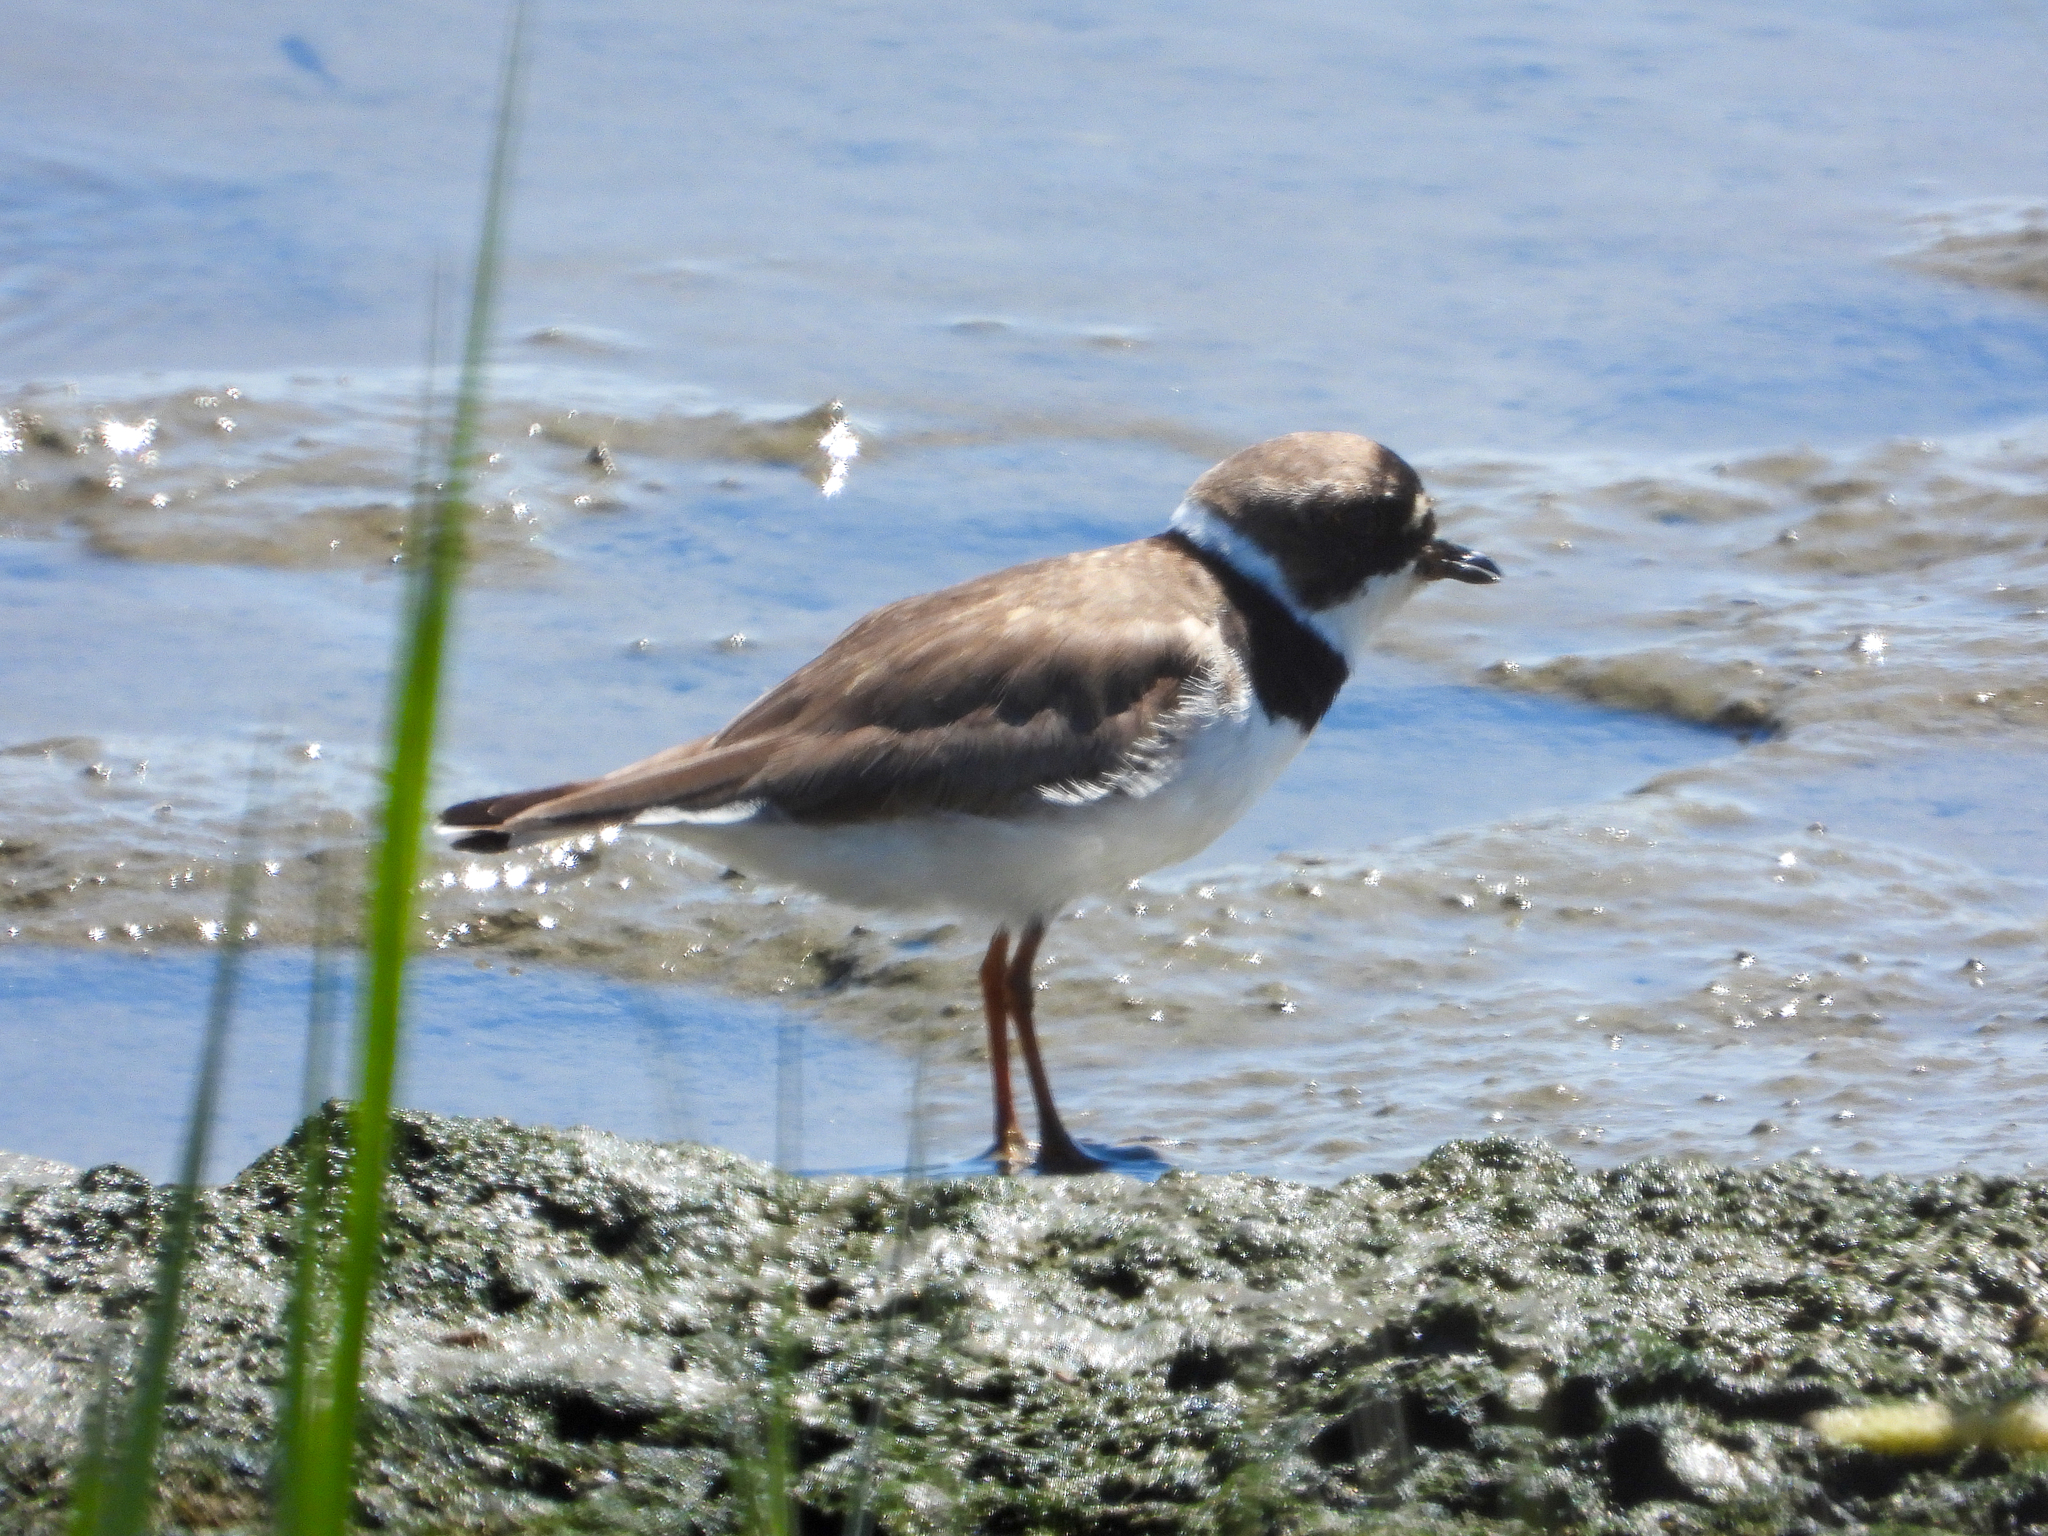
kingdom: Animalia
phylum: Chordata
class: Aves
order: Charadriiformes
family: Charadriidae
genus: Charadrius
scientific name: Charadrius semipalmatus
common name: Semipalmated plover
